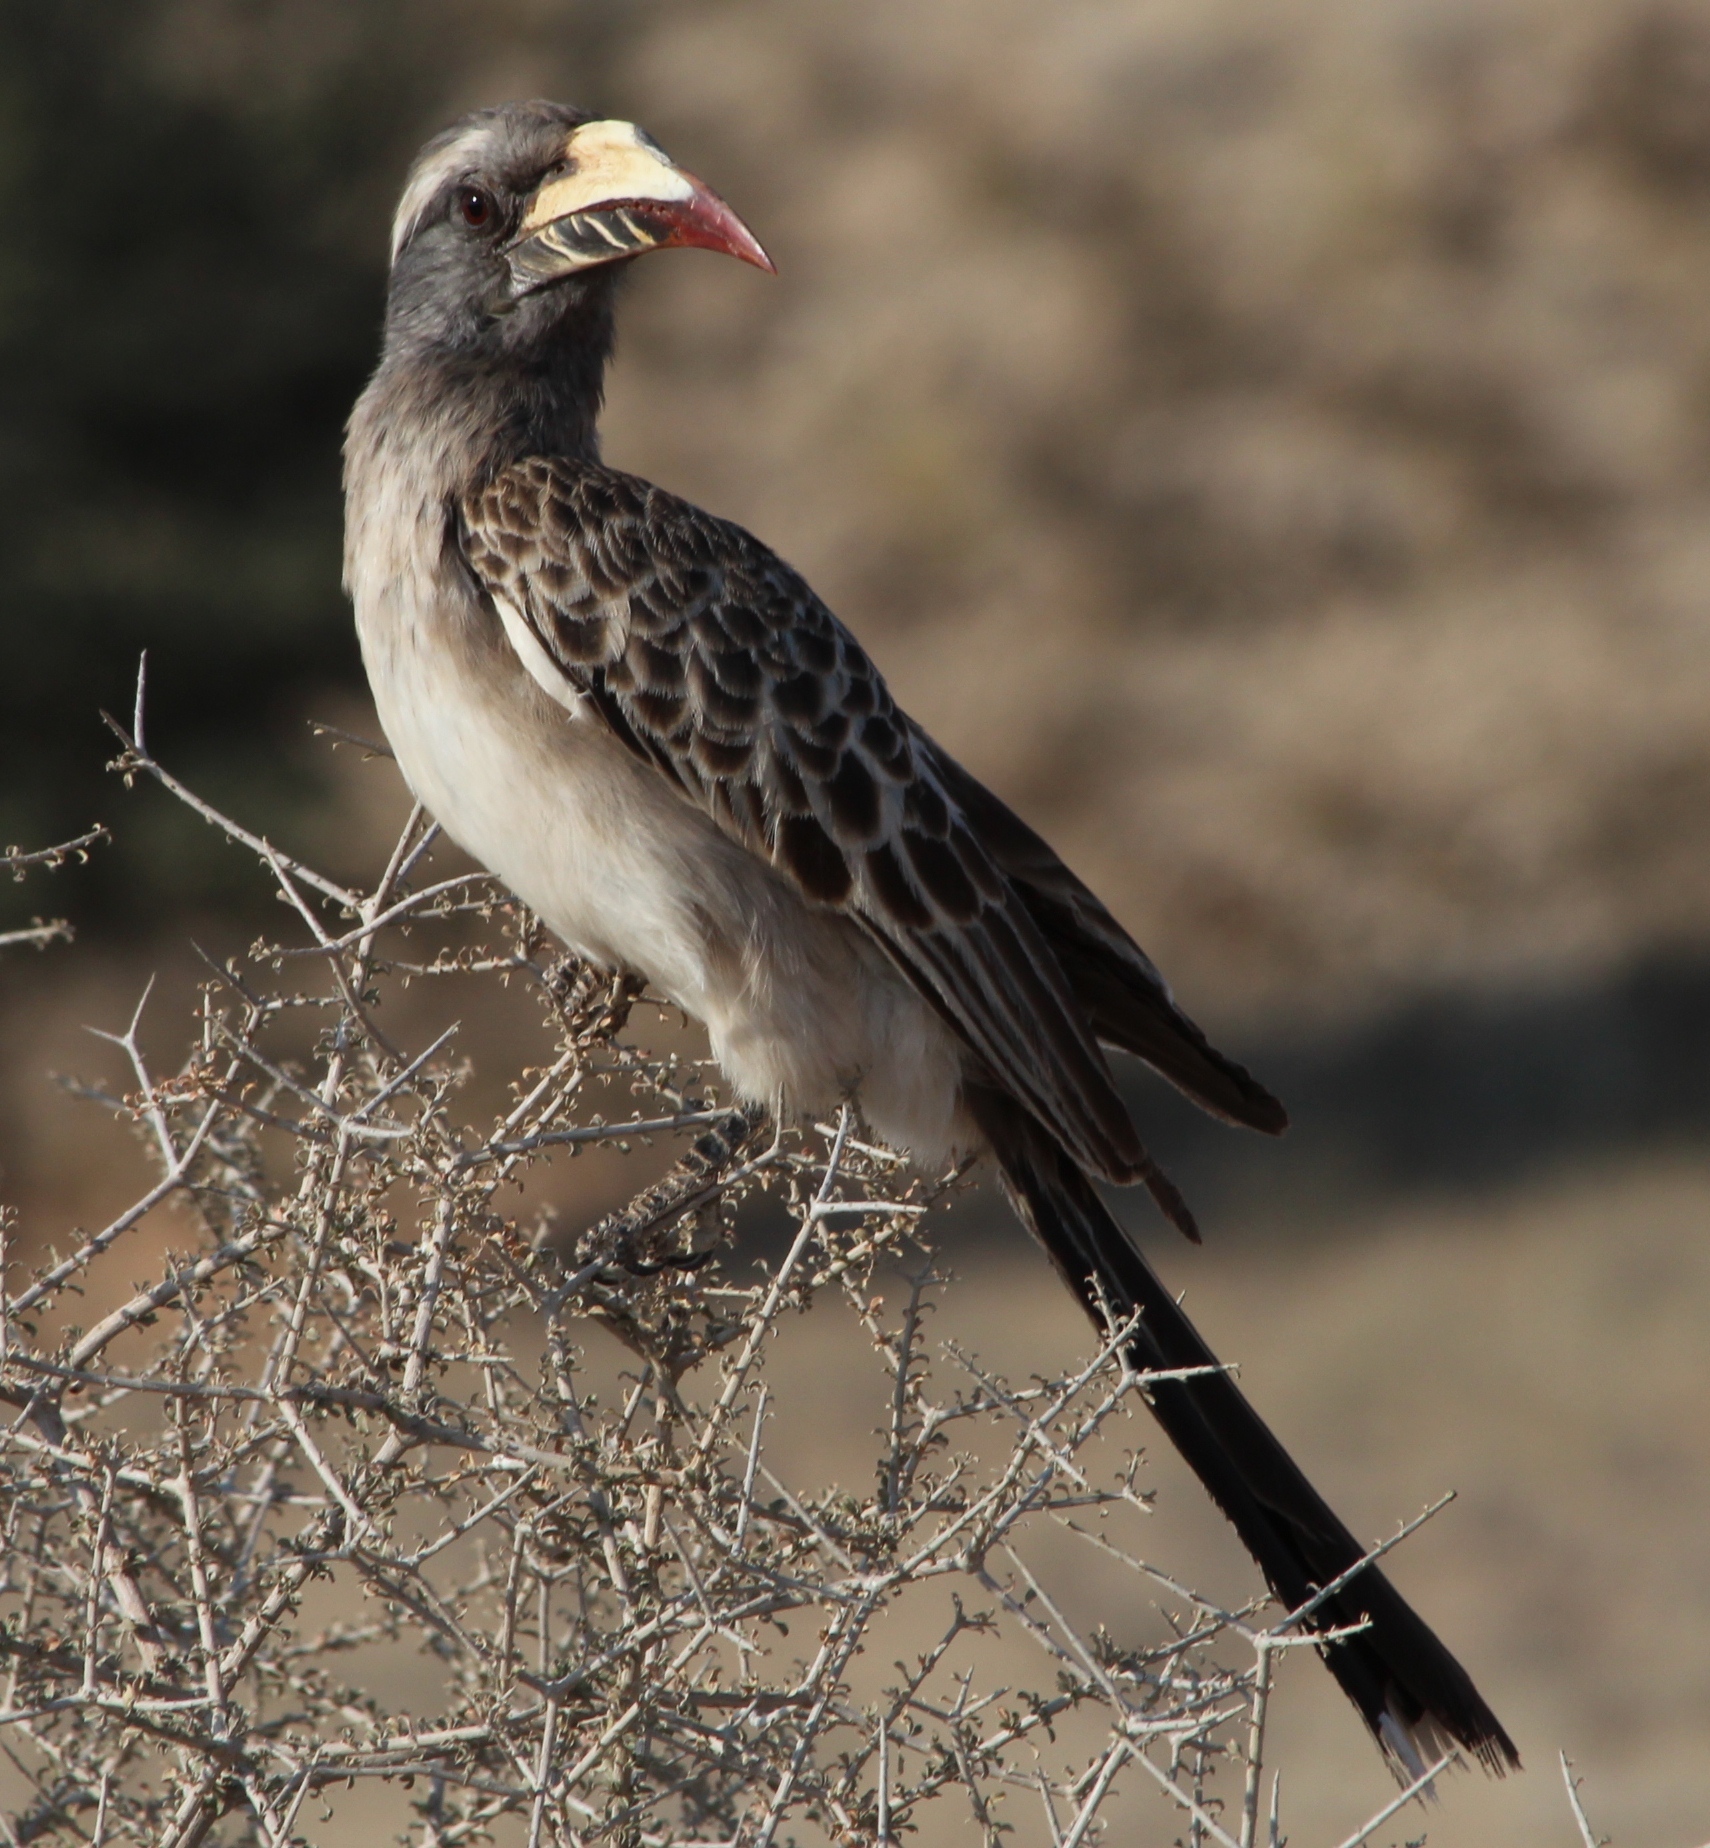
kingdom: Animalia
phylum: Chordata
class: Aves
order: Bucerotiformes
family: Bucerotidae
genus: Lophoceros
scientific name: Lophoceros nasutus
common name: African grey hornbill
